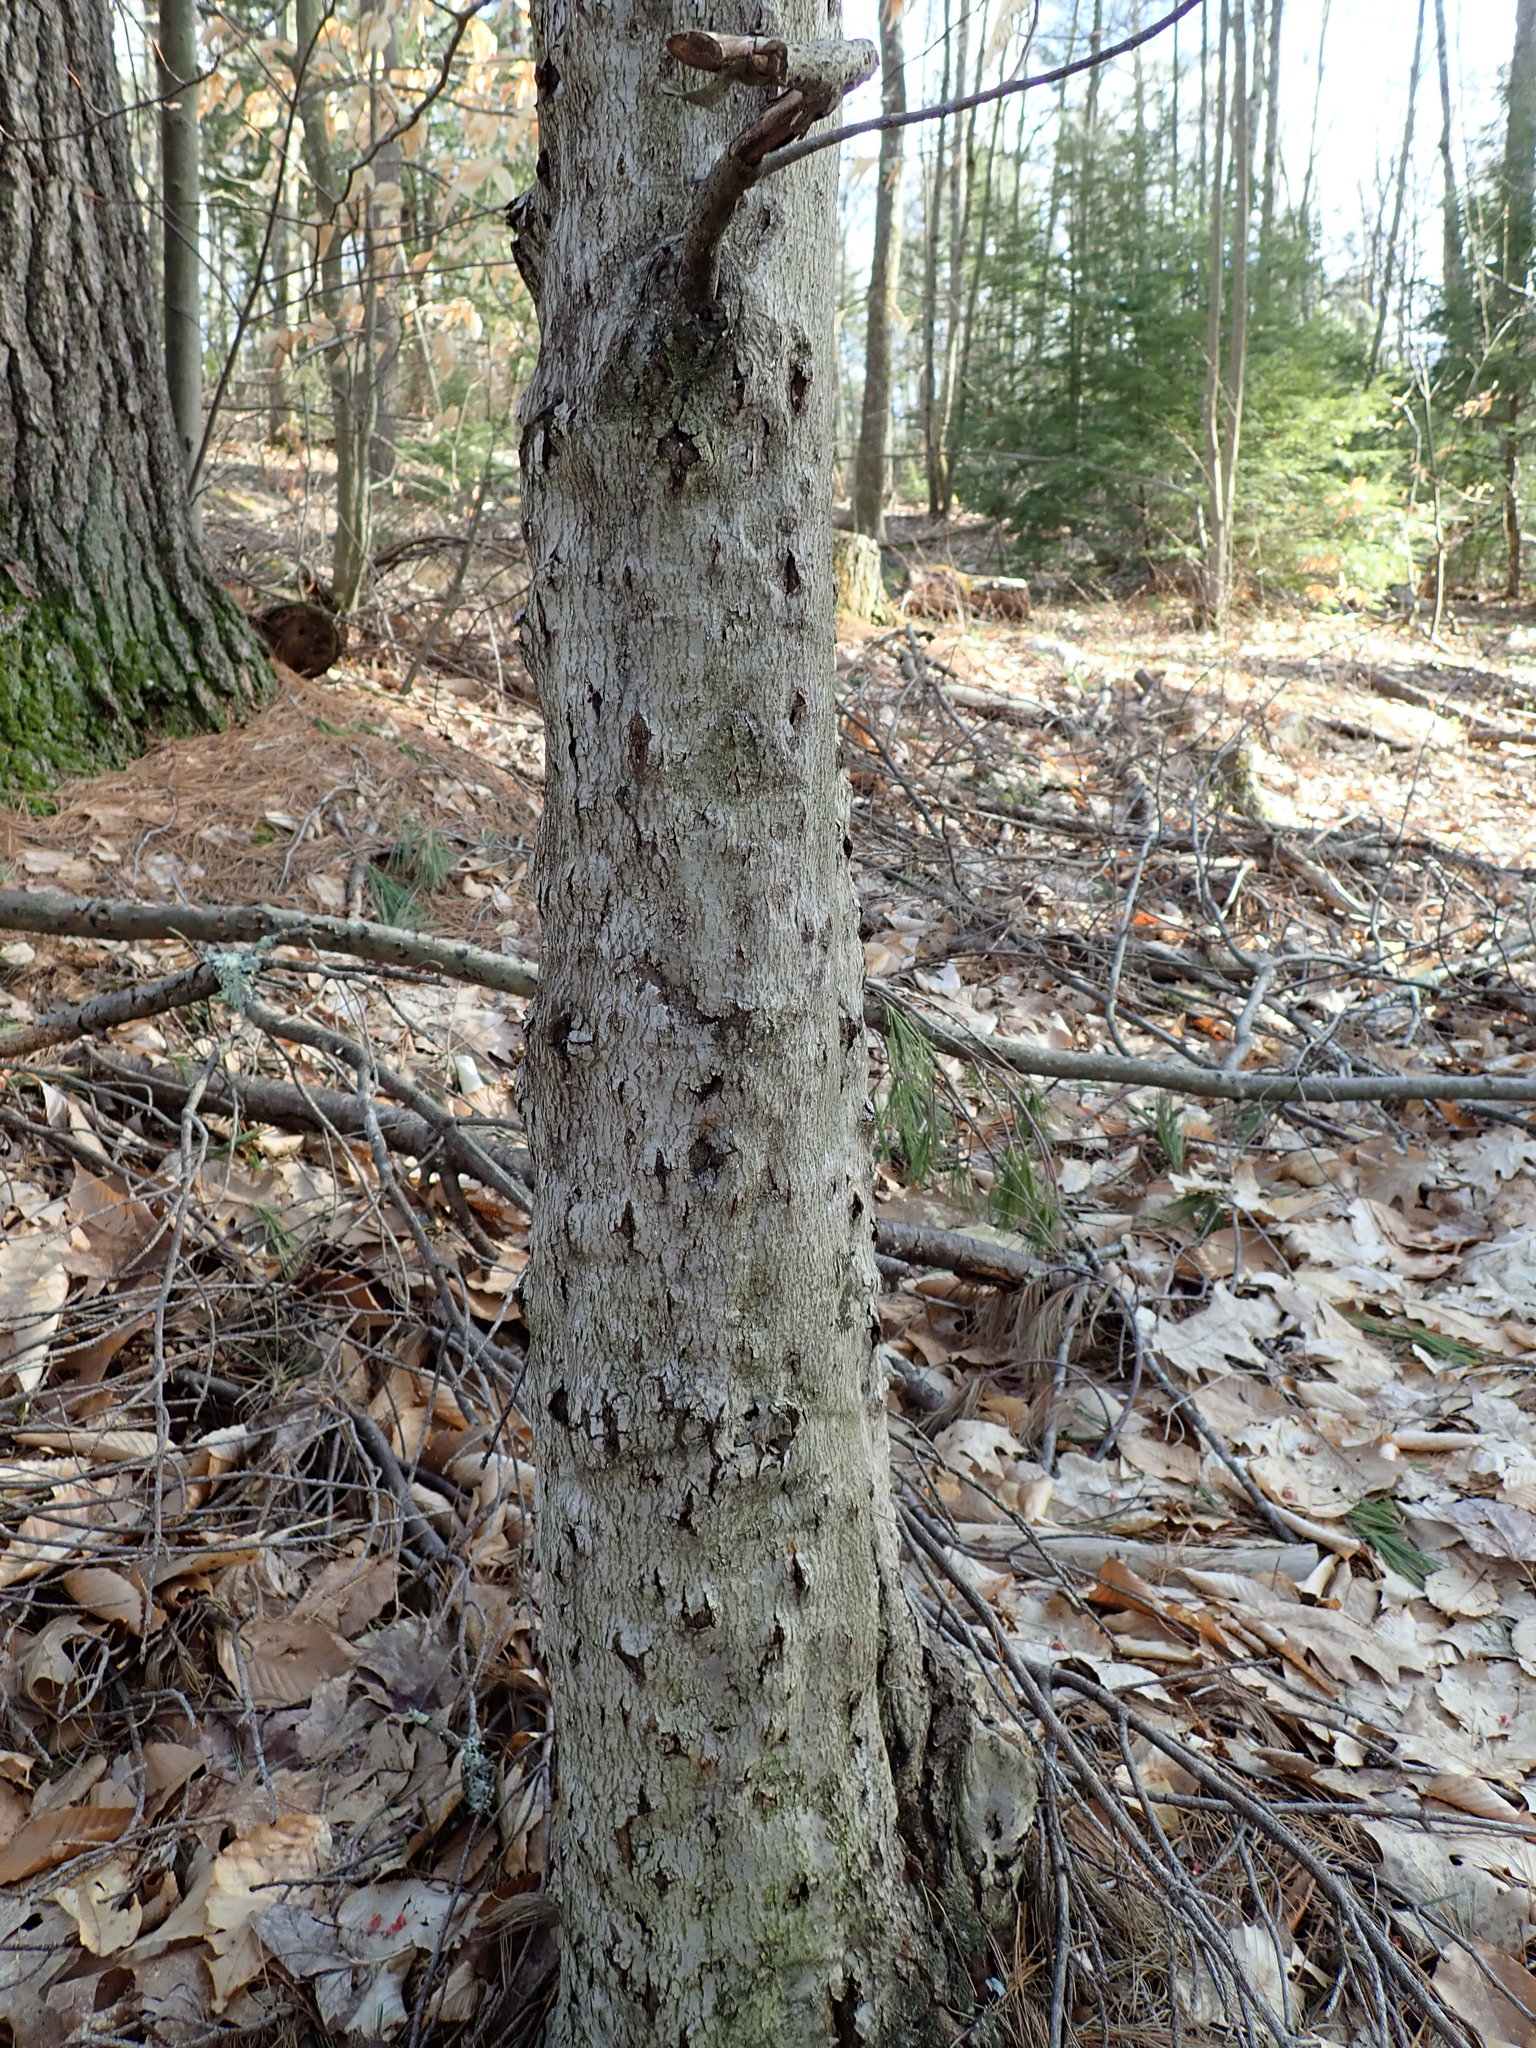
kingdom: Fungi
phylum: Ascomycota
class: Sordariomycetes
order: Hypocreales
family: Nectriaceae
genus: Neonectria
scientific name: Neonectria faginata
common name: Beech bark canker
